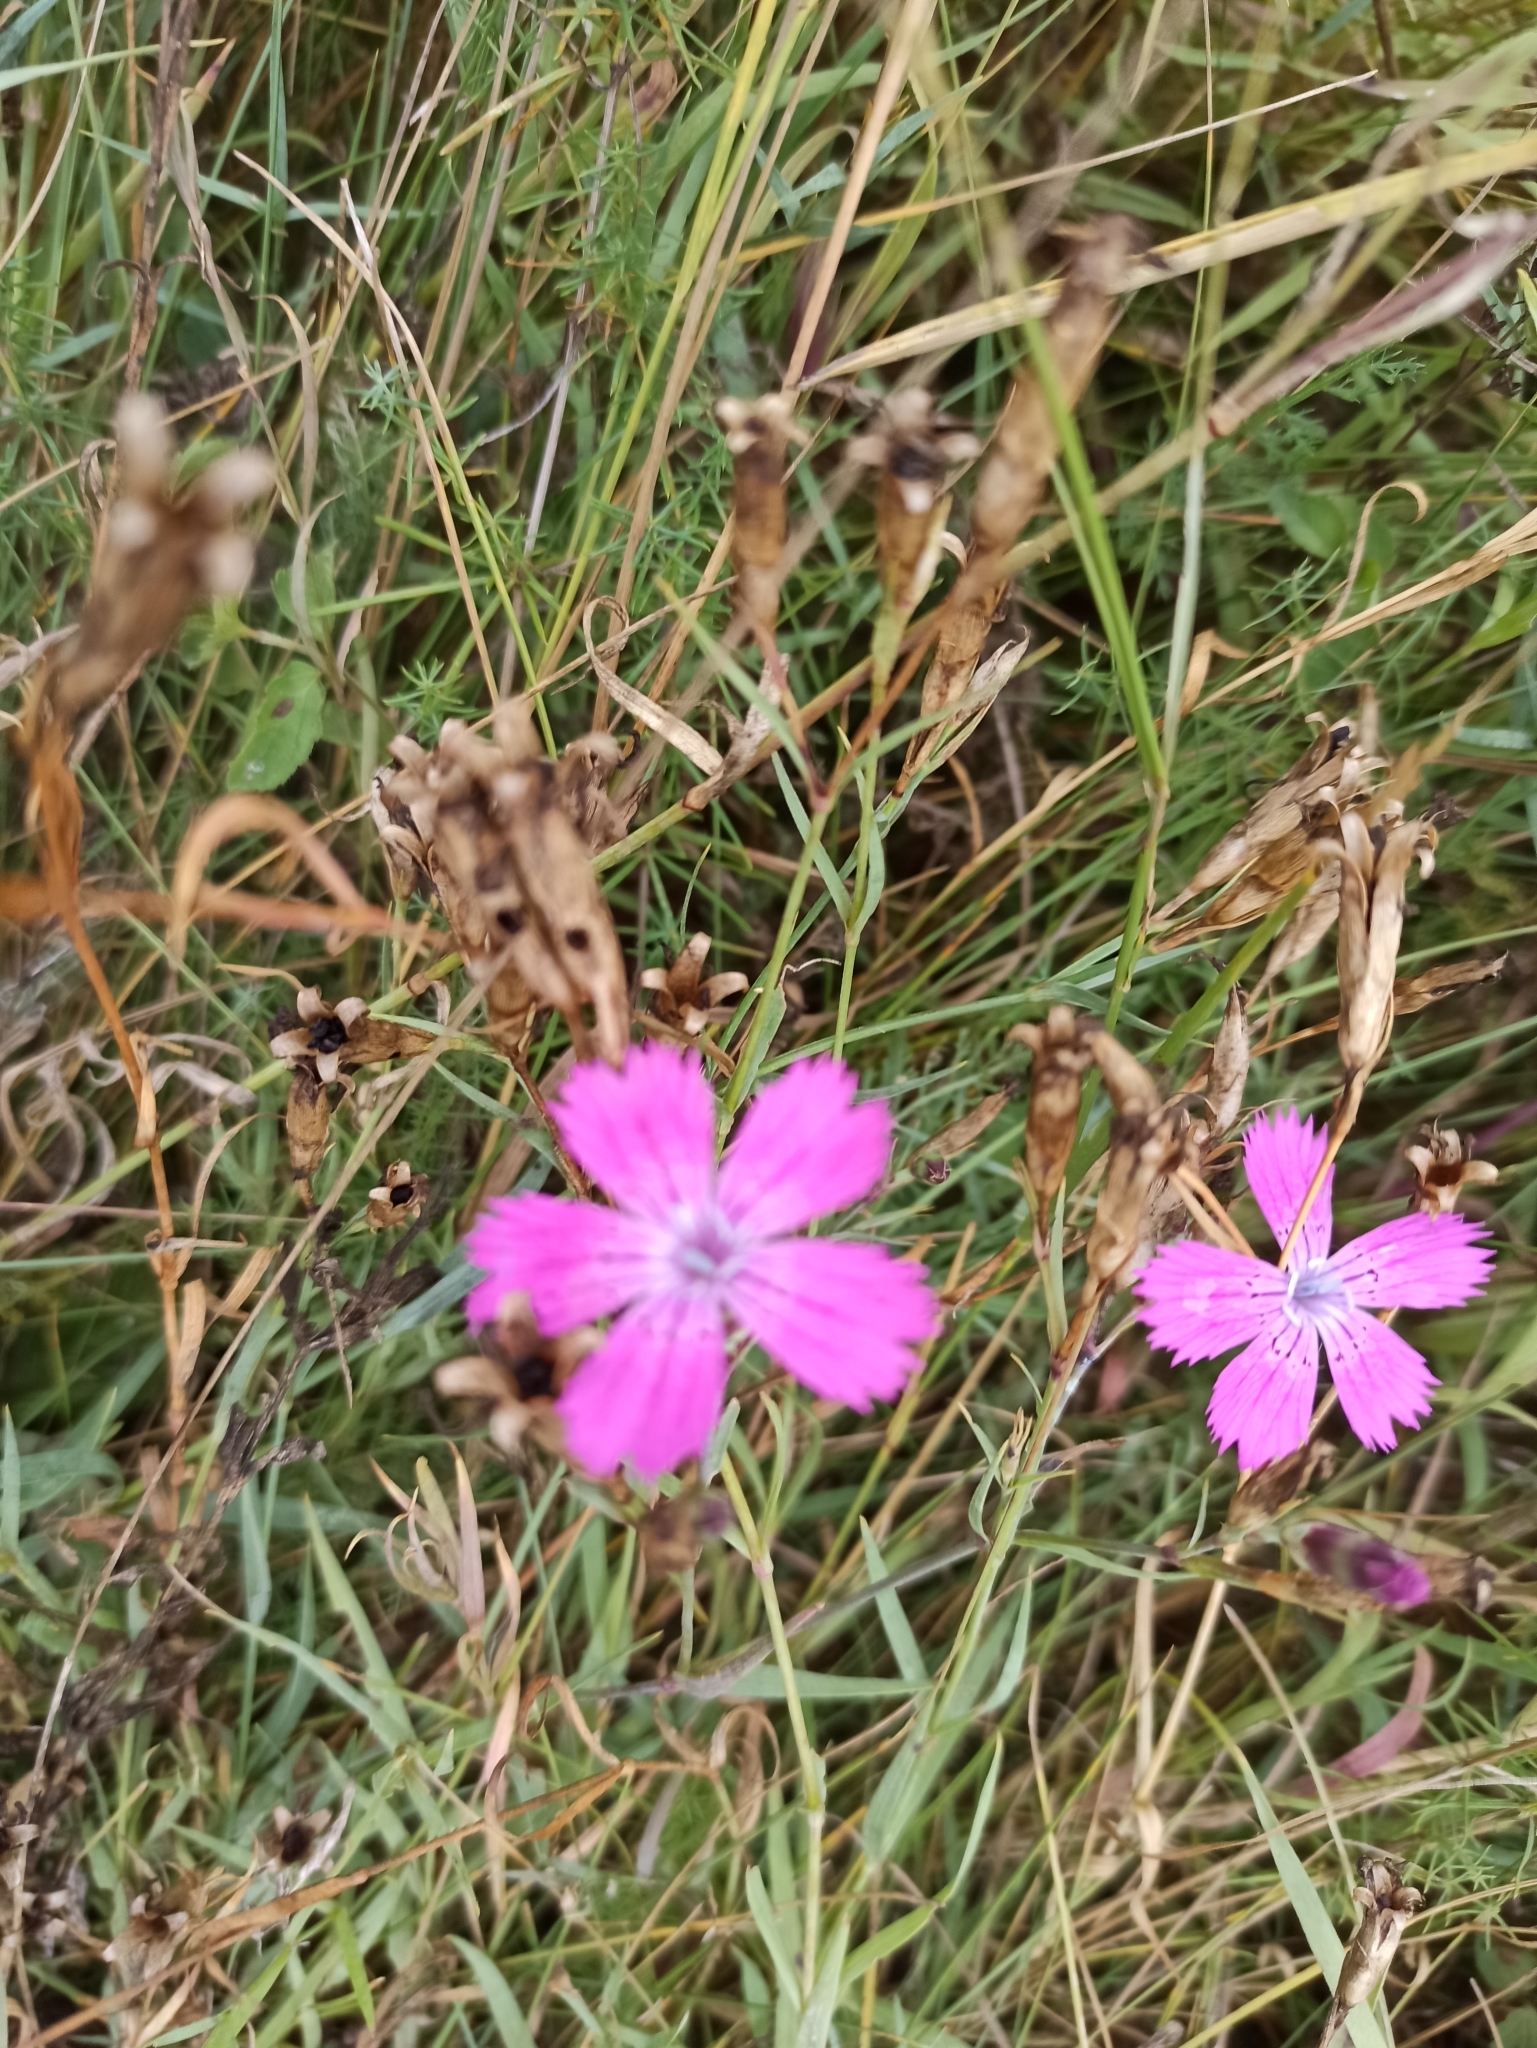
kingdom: Plantae
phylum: Tracheophyta
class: Magnoliopsida
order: Caryophyllales
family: Caryophyllaceae
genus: Dianthus
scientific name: Dianthus chinensis
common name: Rainbow pink
